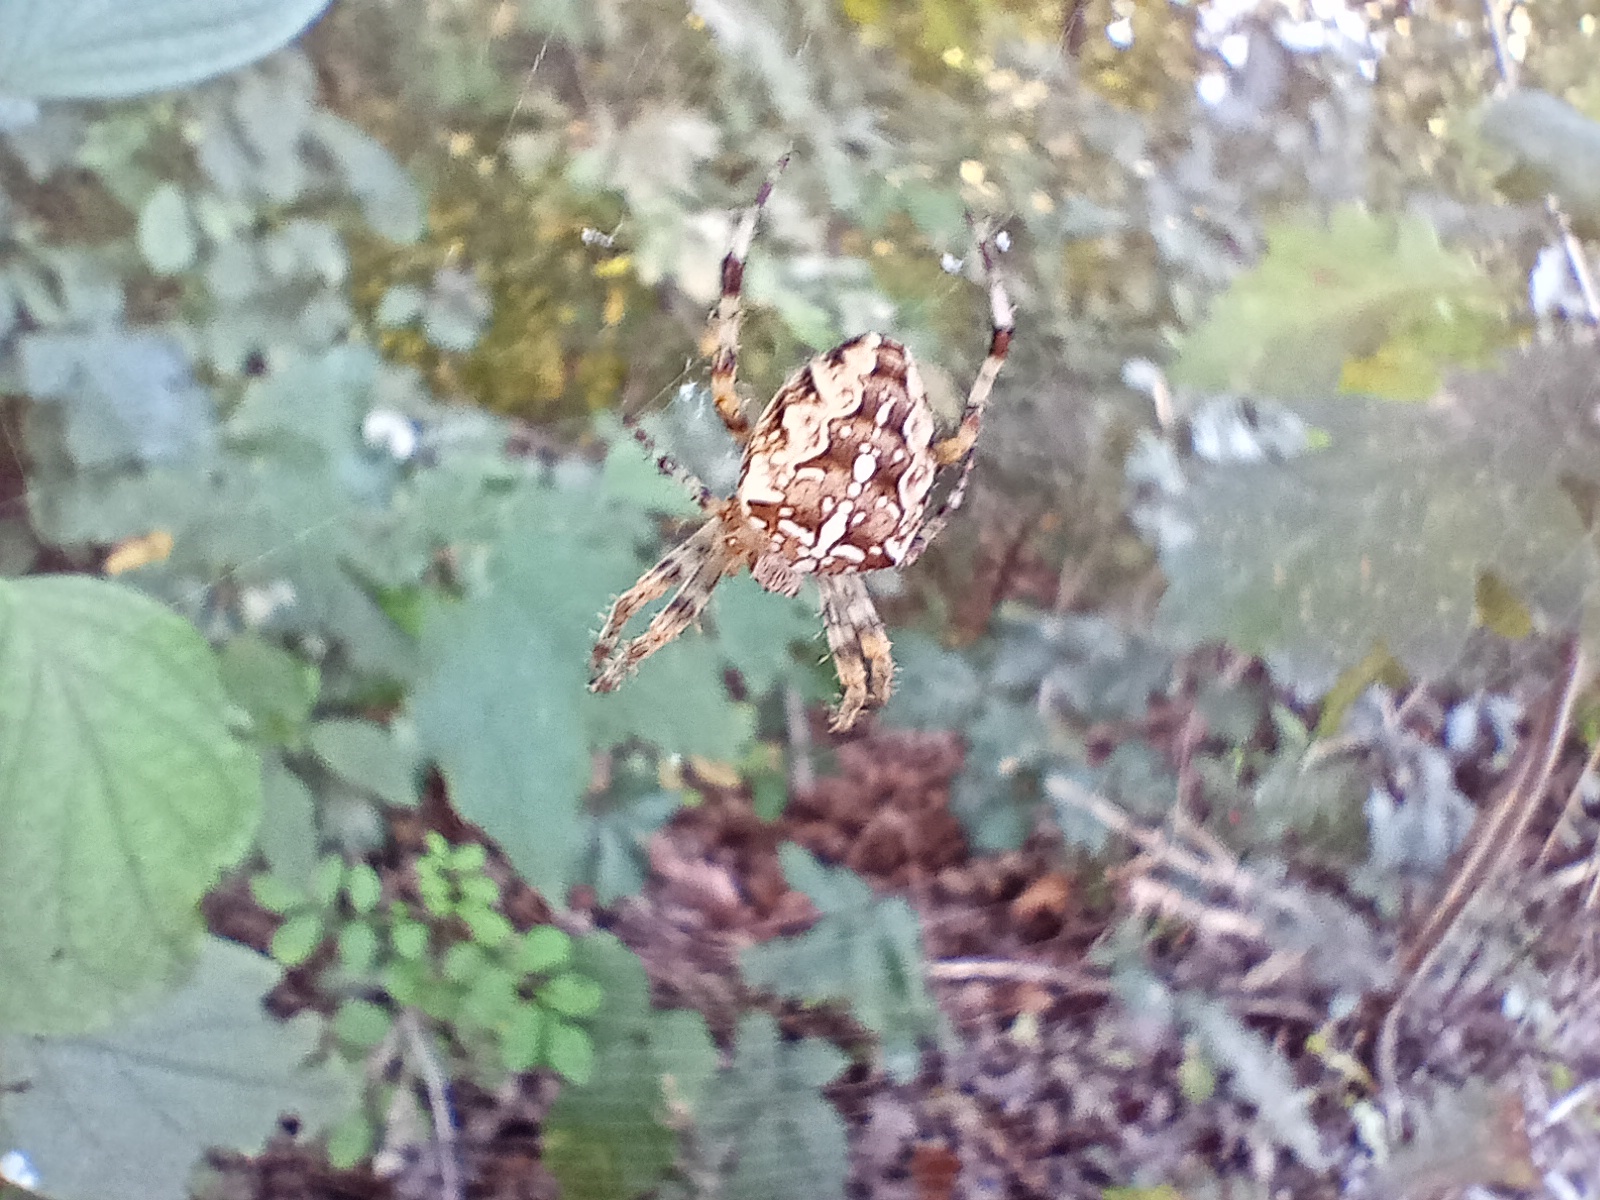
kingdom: Animalia
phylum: Arthropoda
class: Arachnida
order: Araneae
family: Araneidae
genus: Araneus
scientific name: Araneus diadematus
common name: Cross orbweaver
